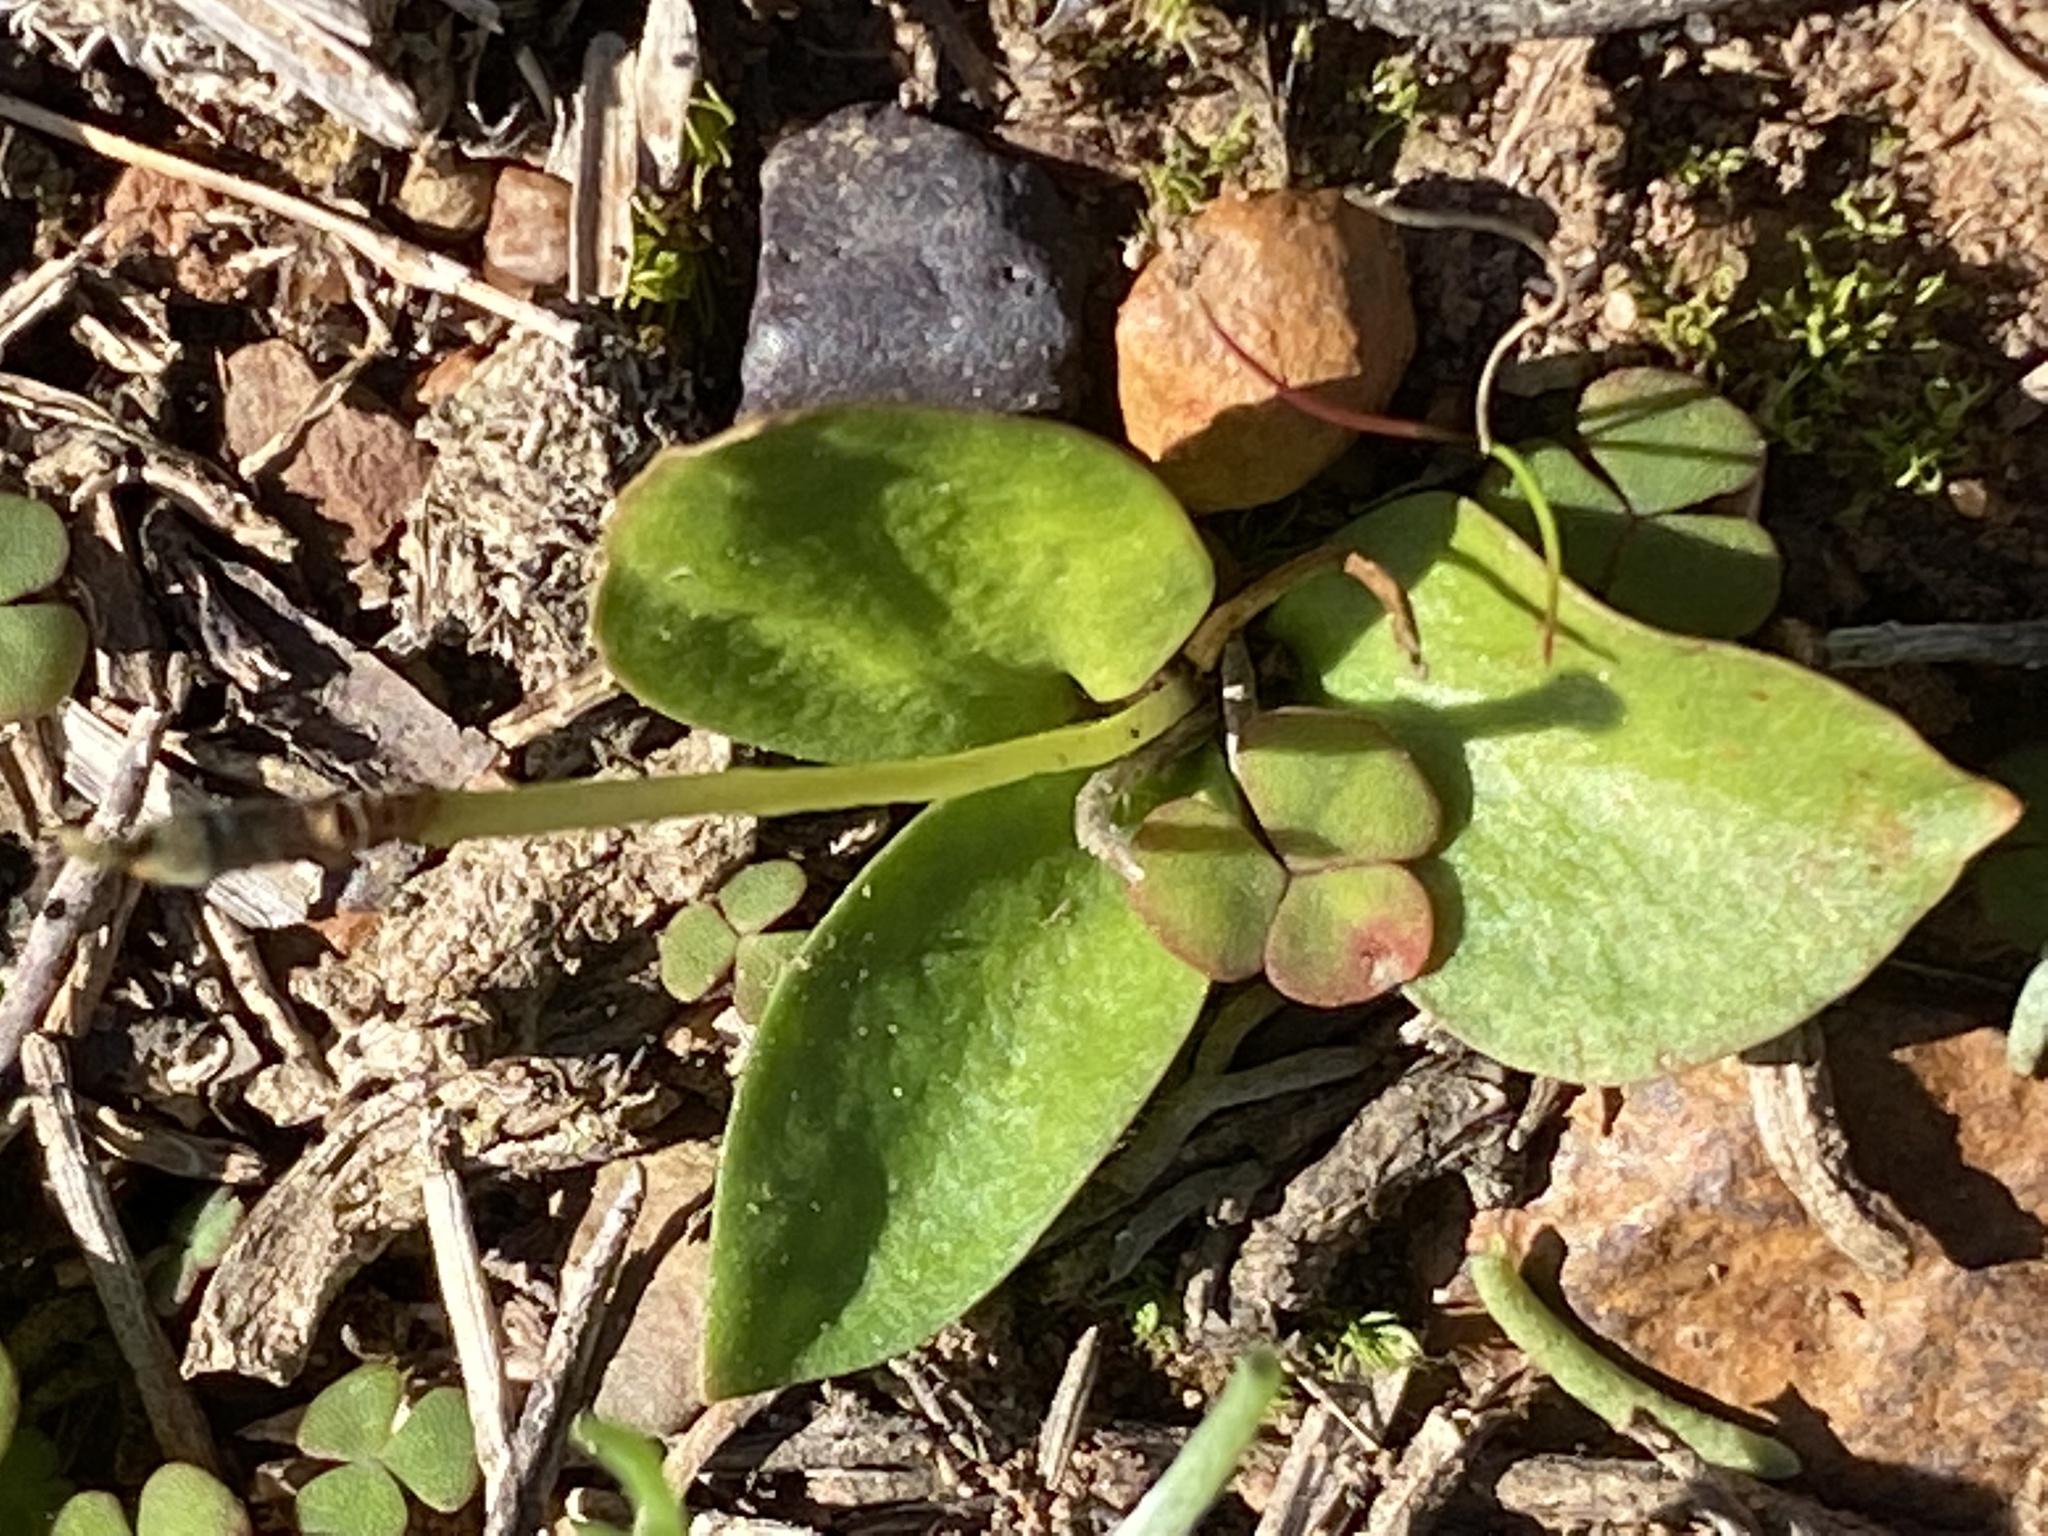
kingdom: Plantae
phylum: Tracheophyta
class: Polypodiopsida
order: Ophioglossales
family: Ophioglossaceae
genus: Ophioglossum
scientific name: Ophioglossum polyphyllum
